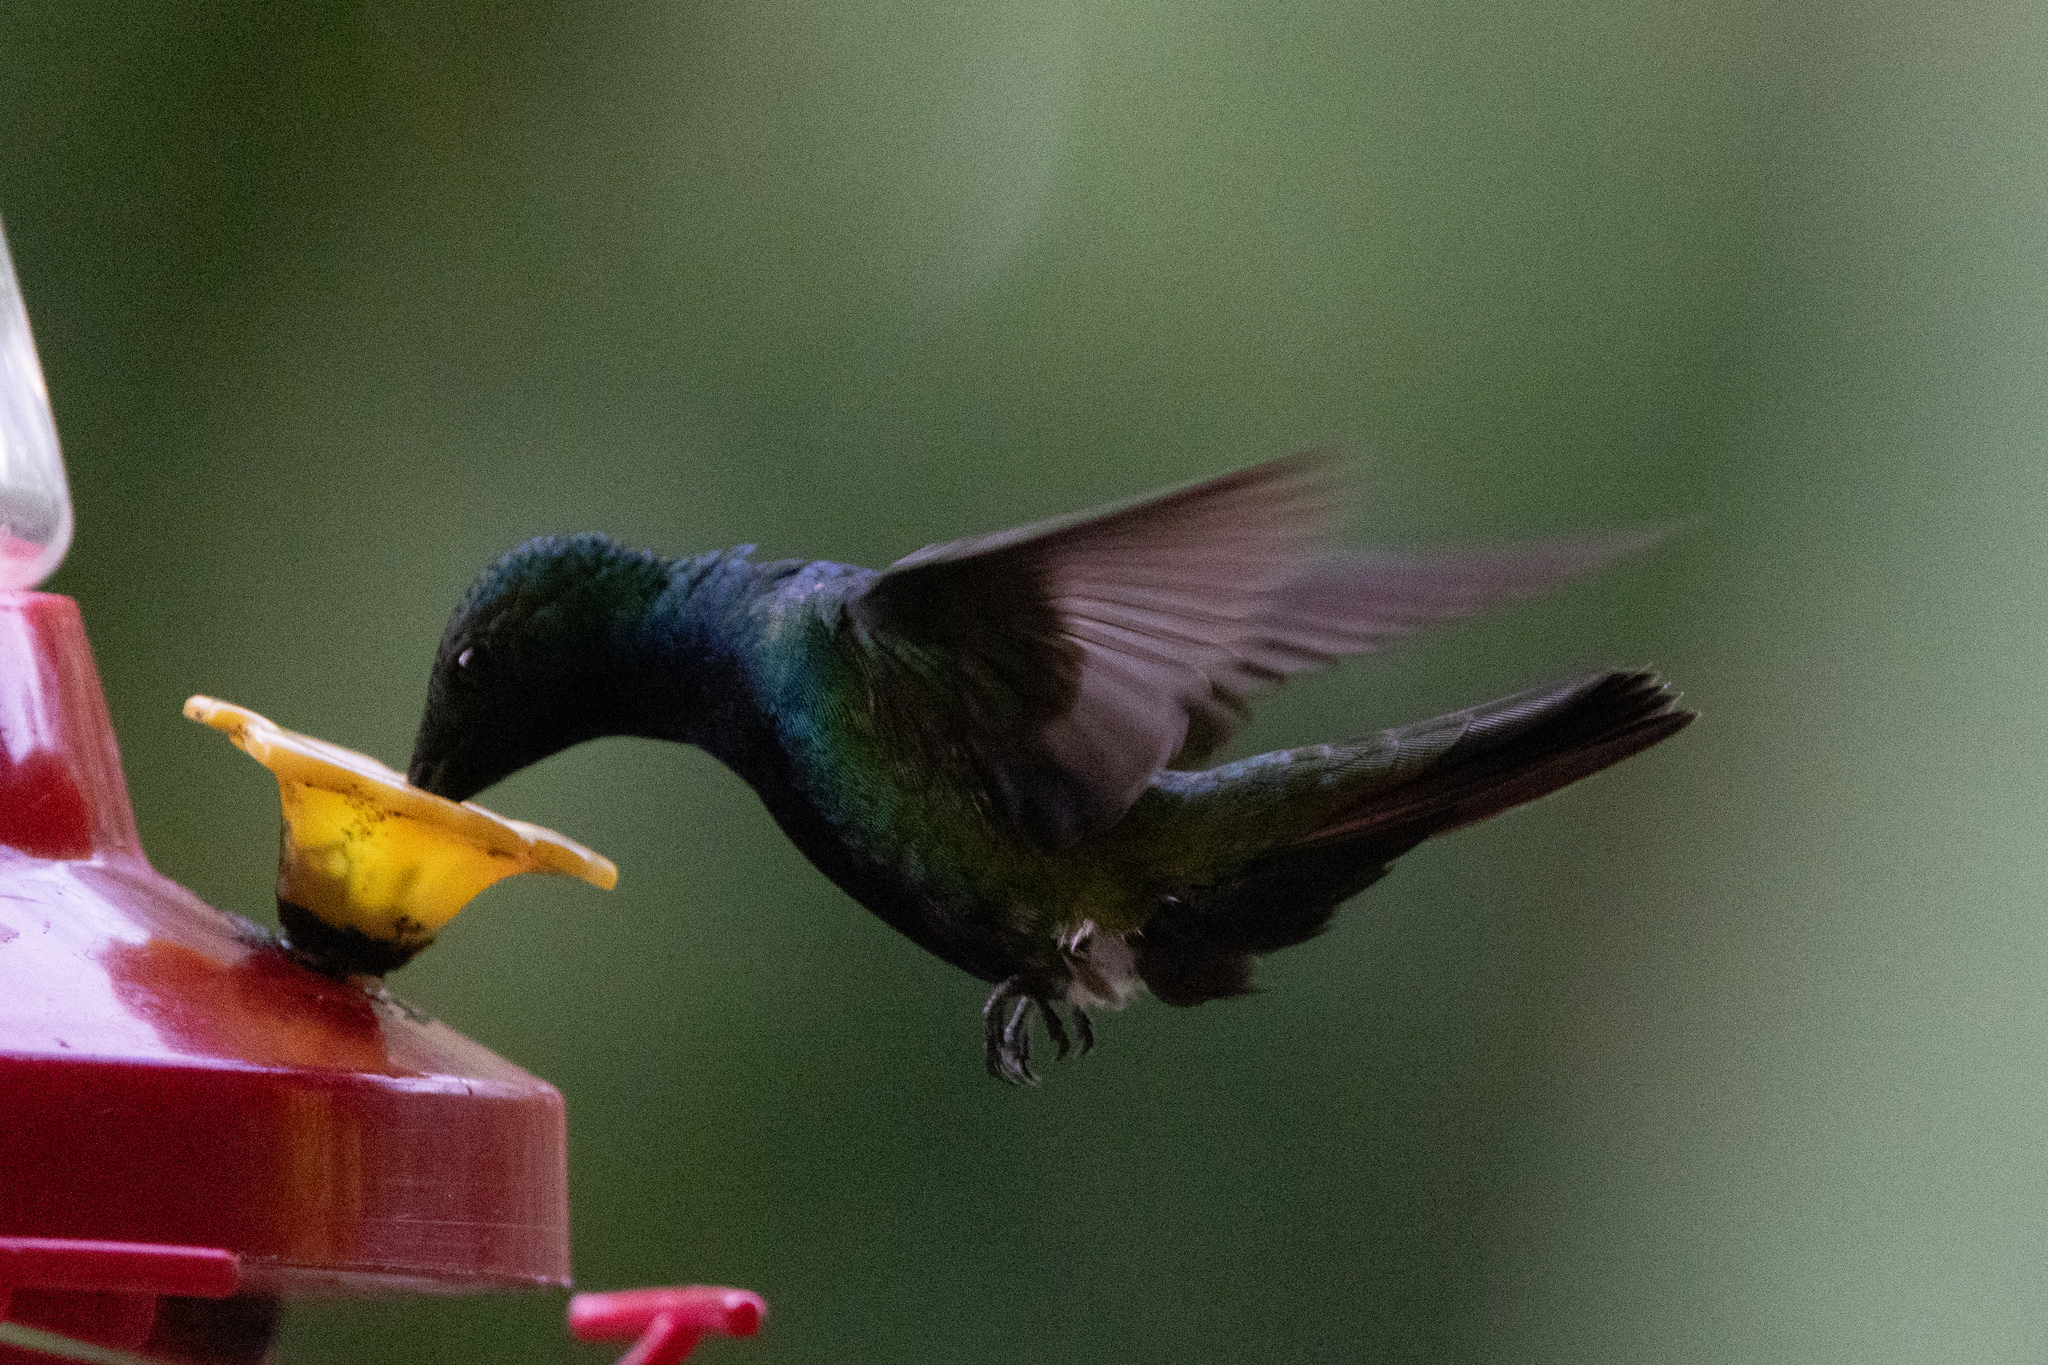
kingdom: Animalia
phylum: Chordata
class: Aves
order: Apodiformes
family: Trochilidae
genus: Anthracothorax
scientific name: Anthracothorax nigricollis
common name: Black-throated mango
